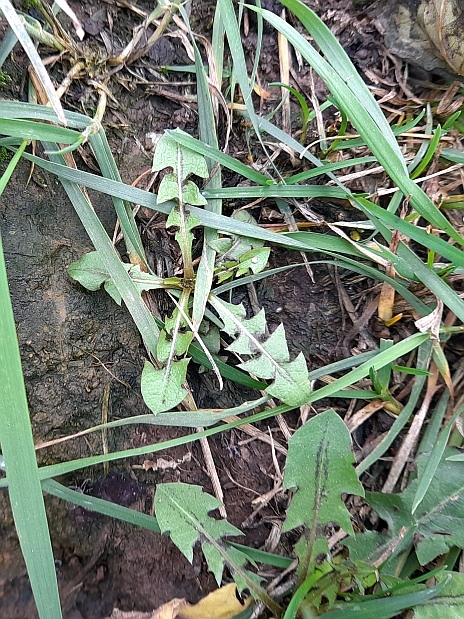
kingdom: Plantae
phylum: Tracheophyta
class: Magnoliopsida
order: Asterales
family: Asteraceae
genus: Taraxacum
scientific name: Taraxacum officinale
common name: Common dandelion
